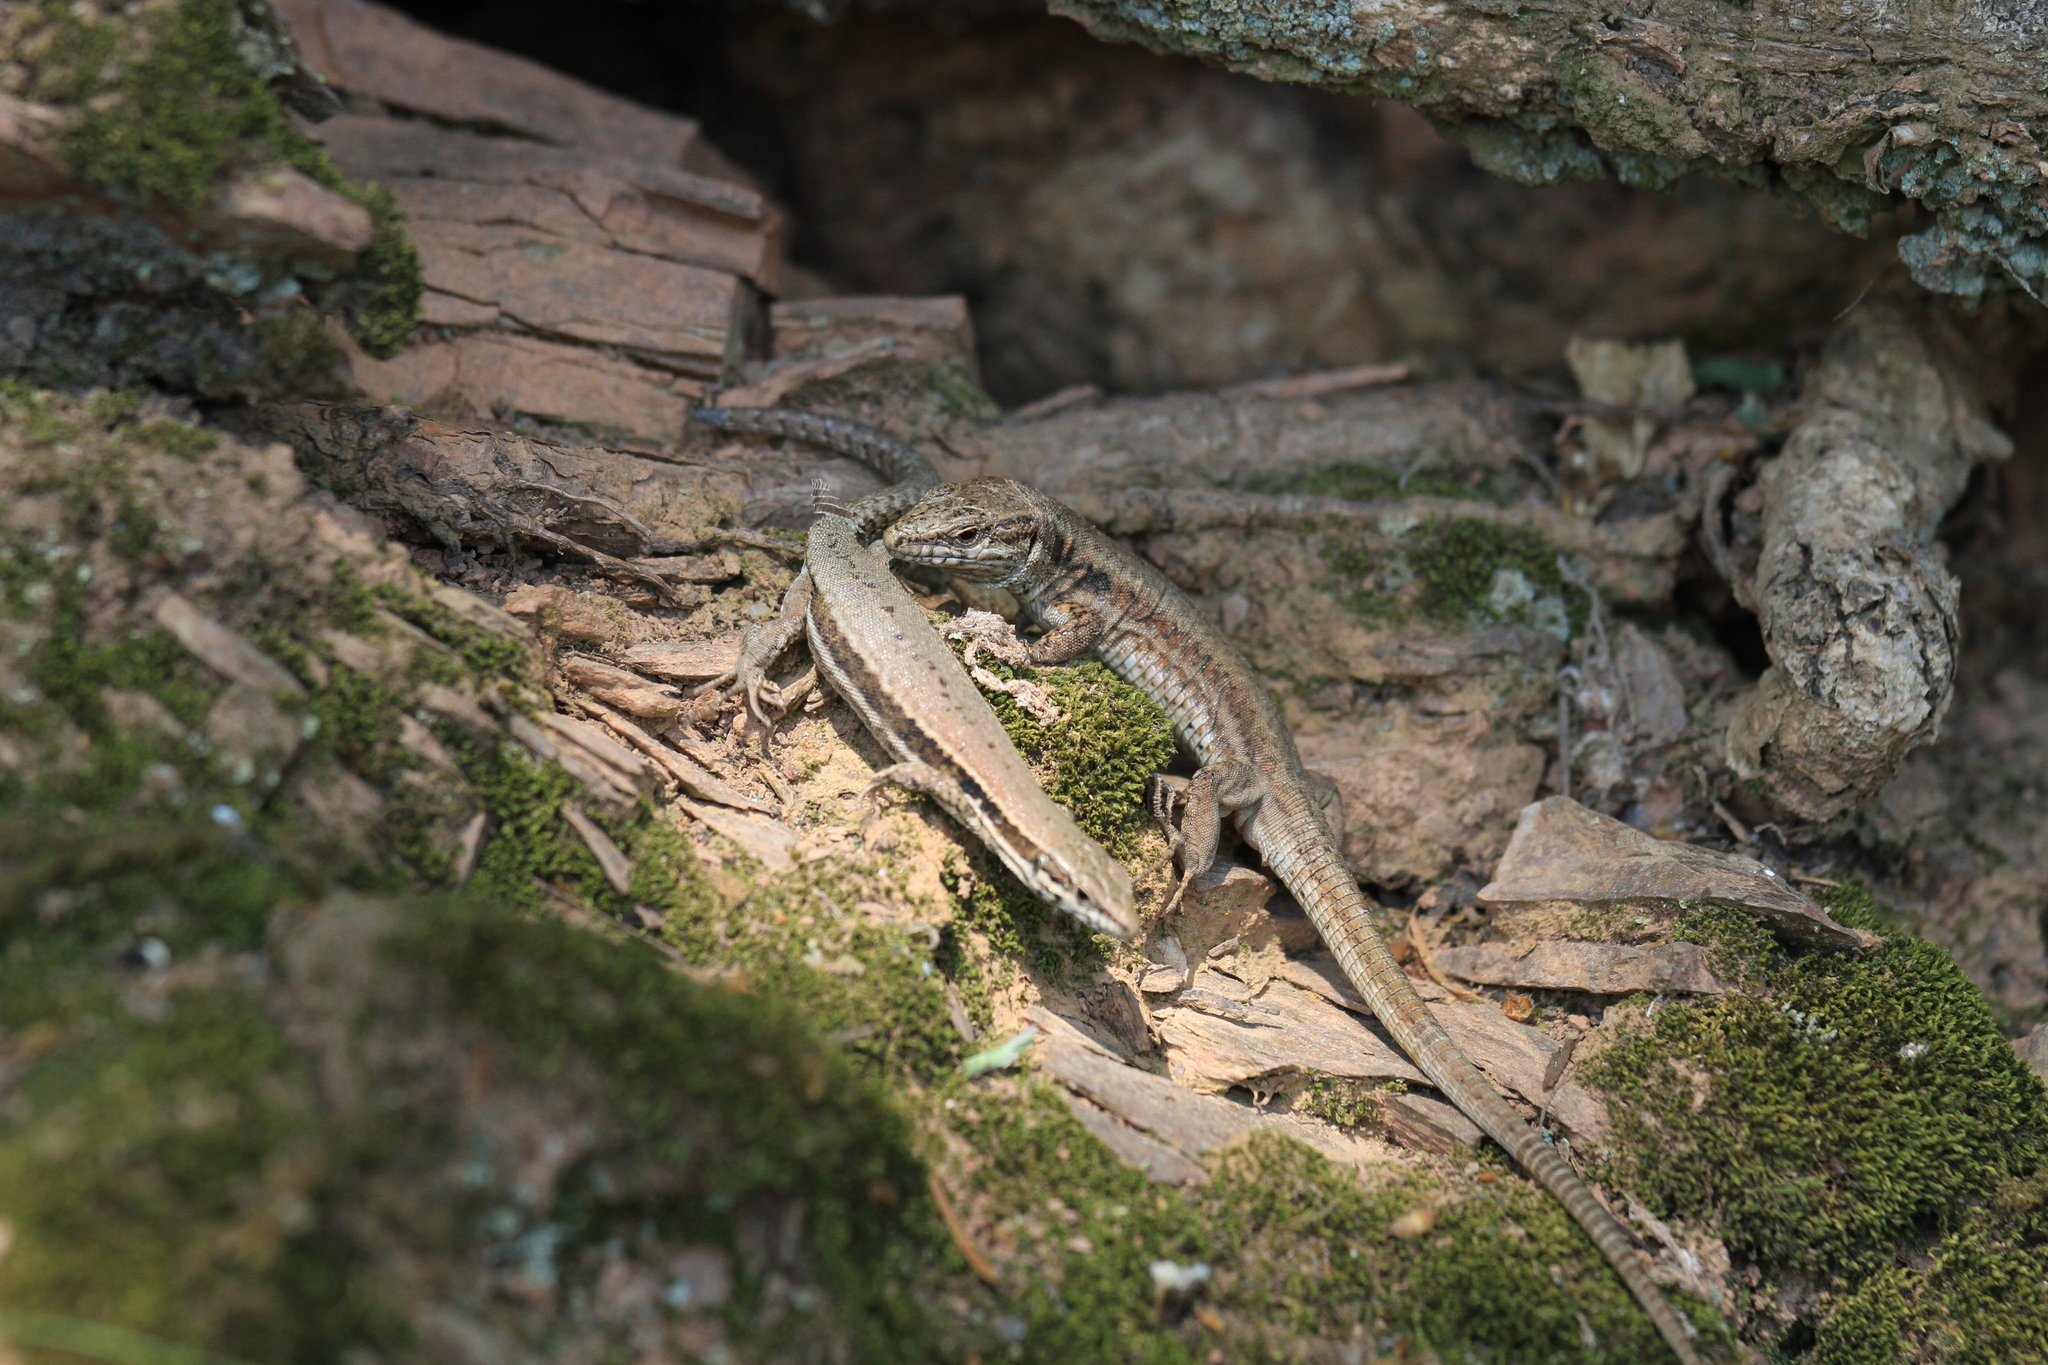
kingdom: Animalia
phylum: Chordata
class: Squamata
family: Lacertidae
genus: Podarcis
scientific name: Podarcis muralis
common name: Common wall lizard
